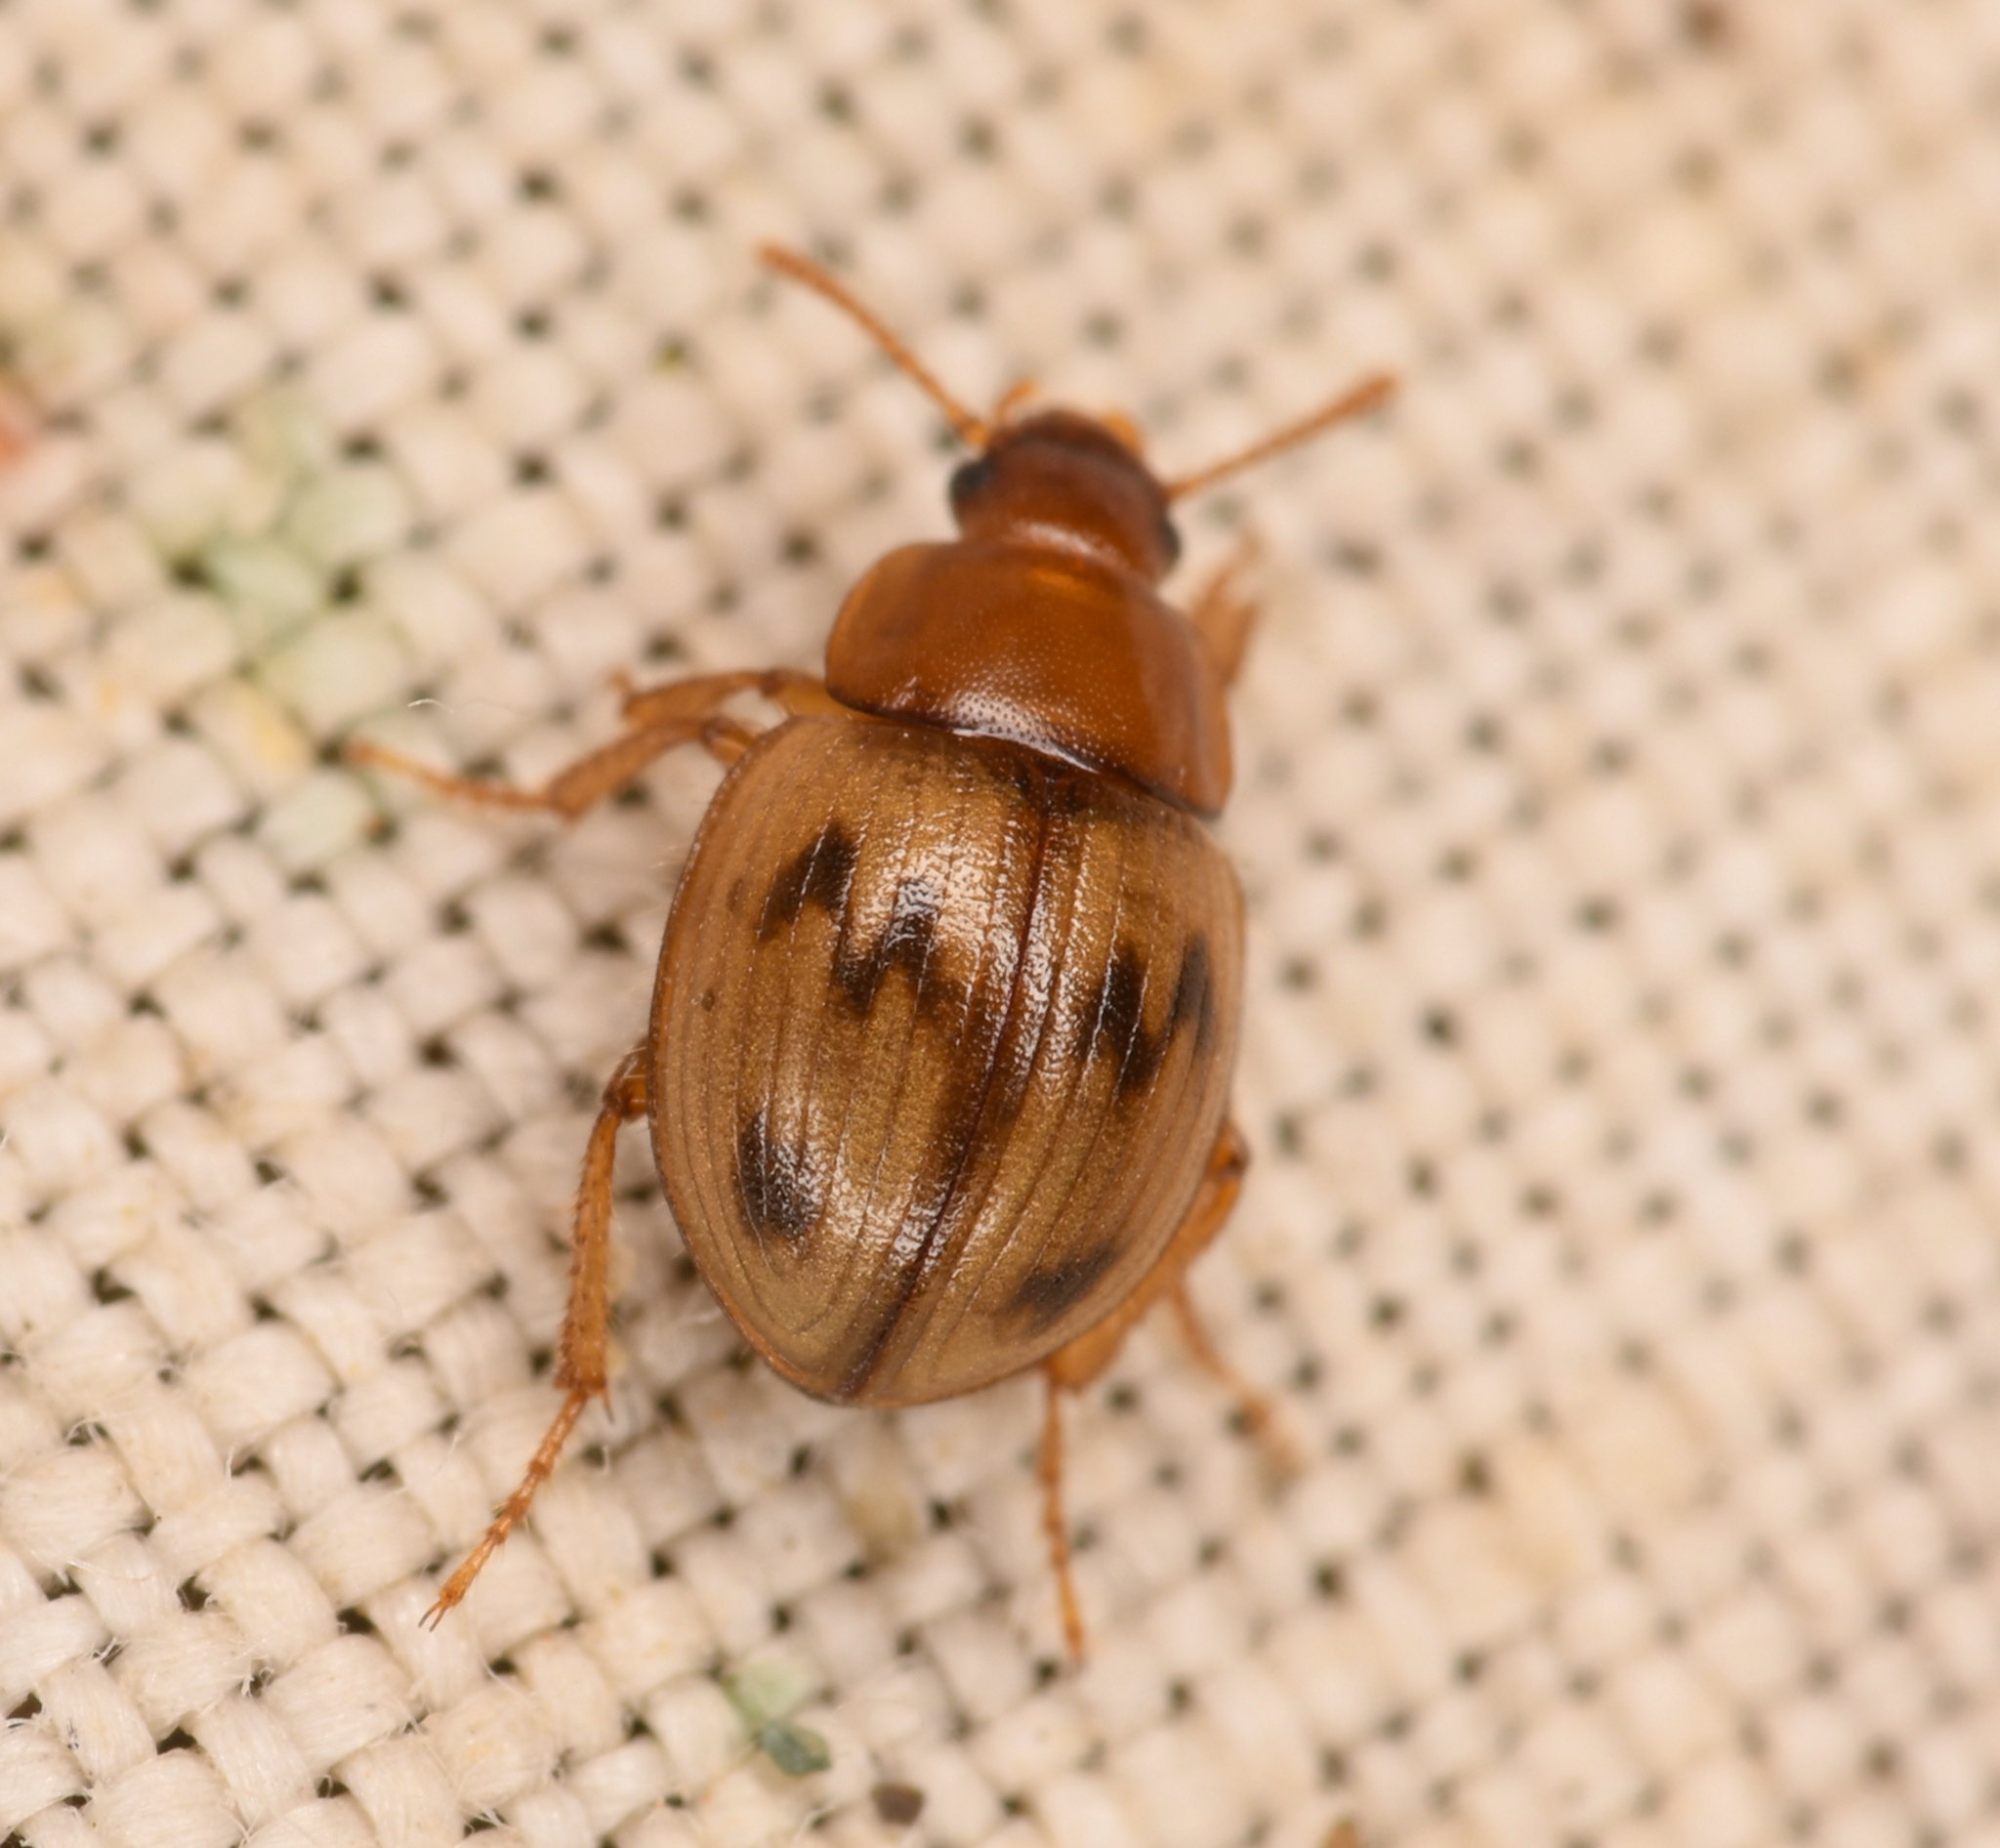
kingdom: Animalia
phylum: Arthropoda
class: Insecta
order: Coleoptera
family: Tenebrionidae
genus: Phaleromela
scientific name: Phaleromela picta
